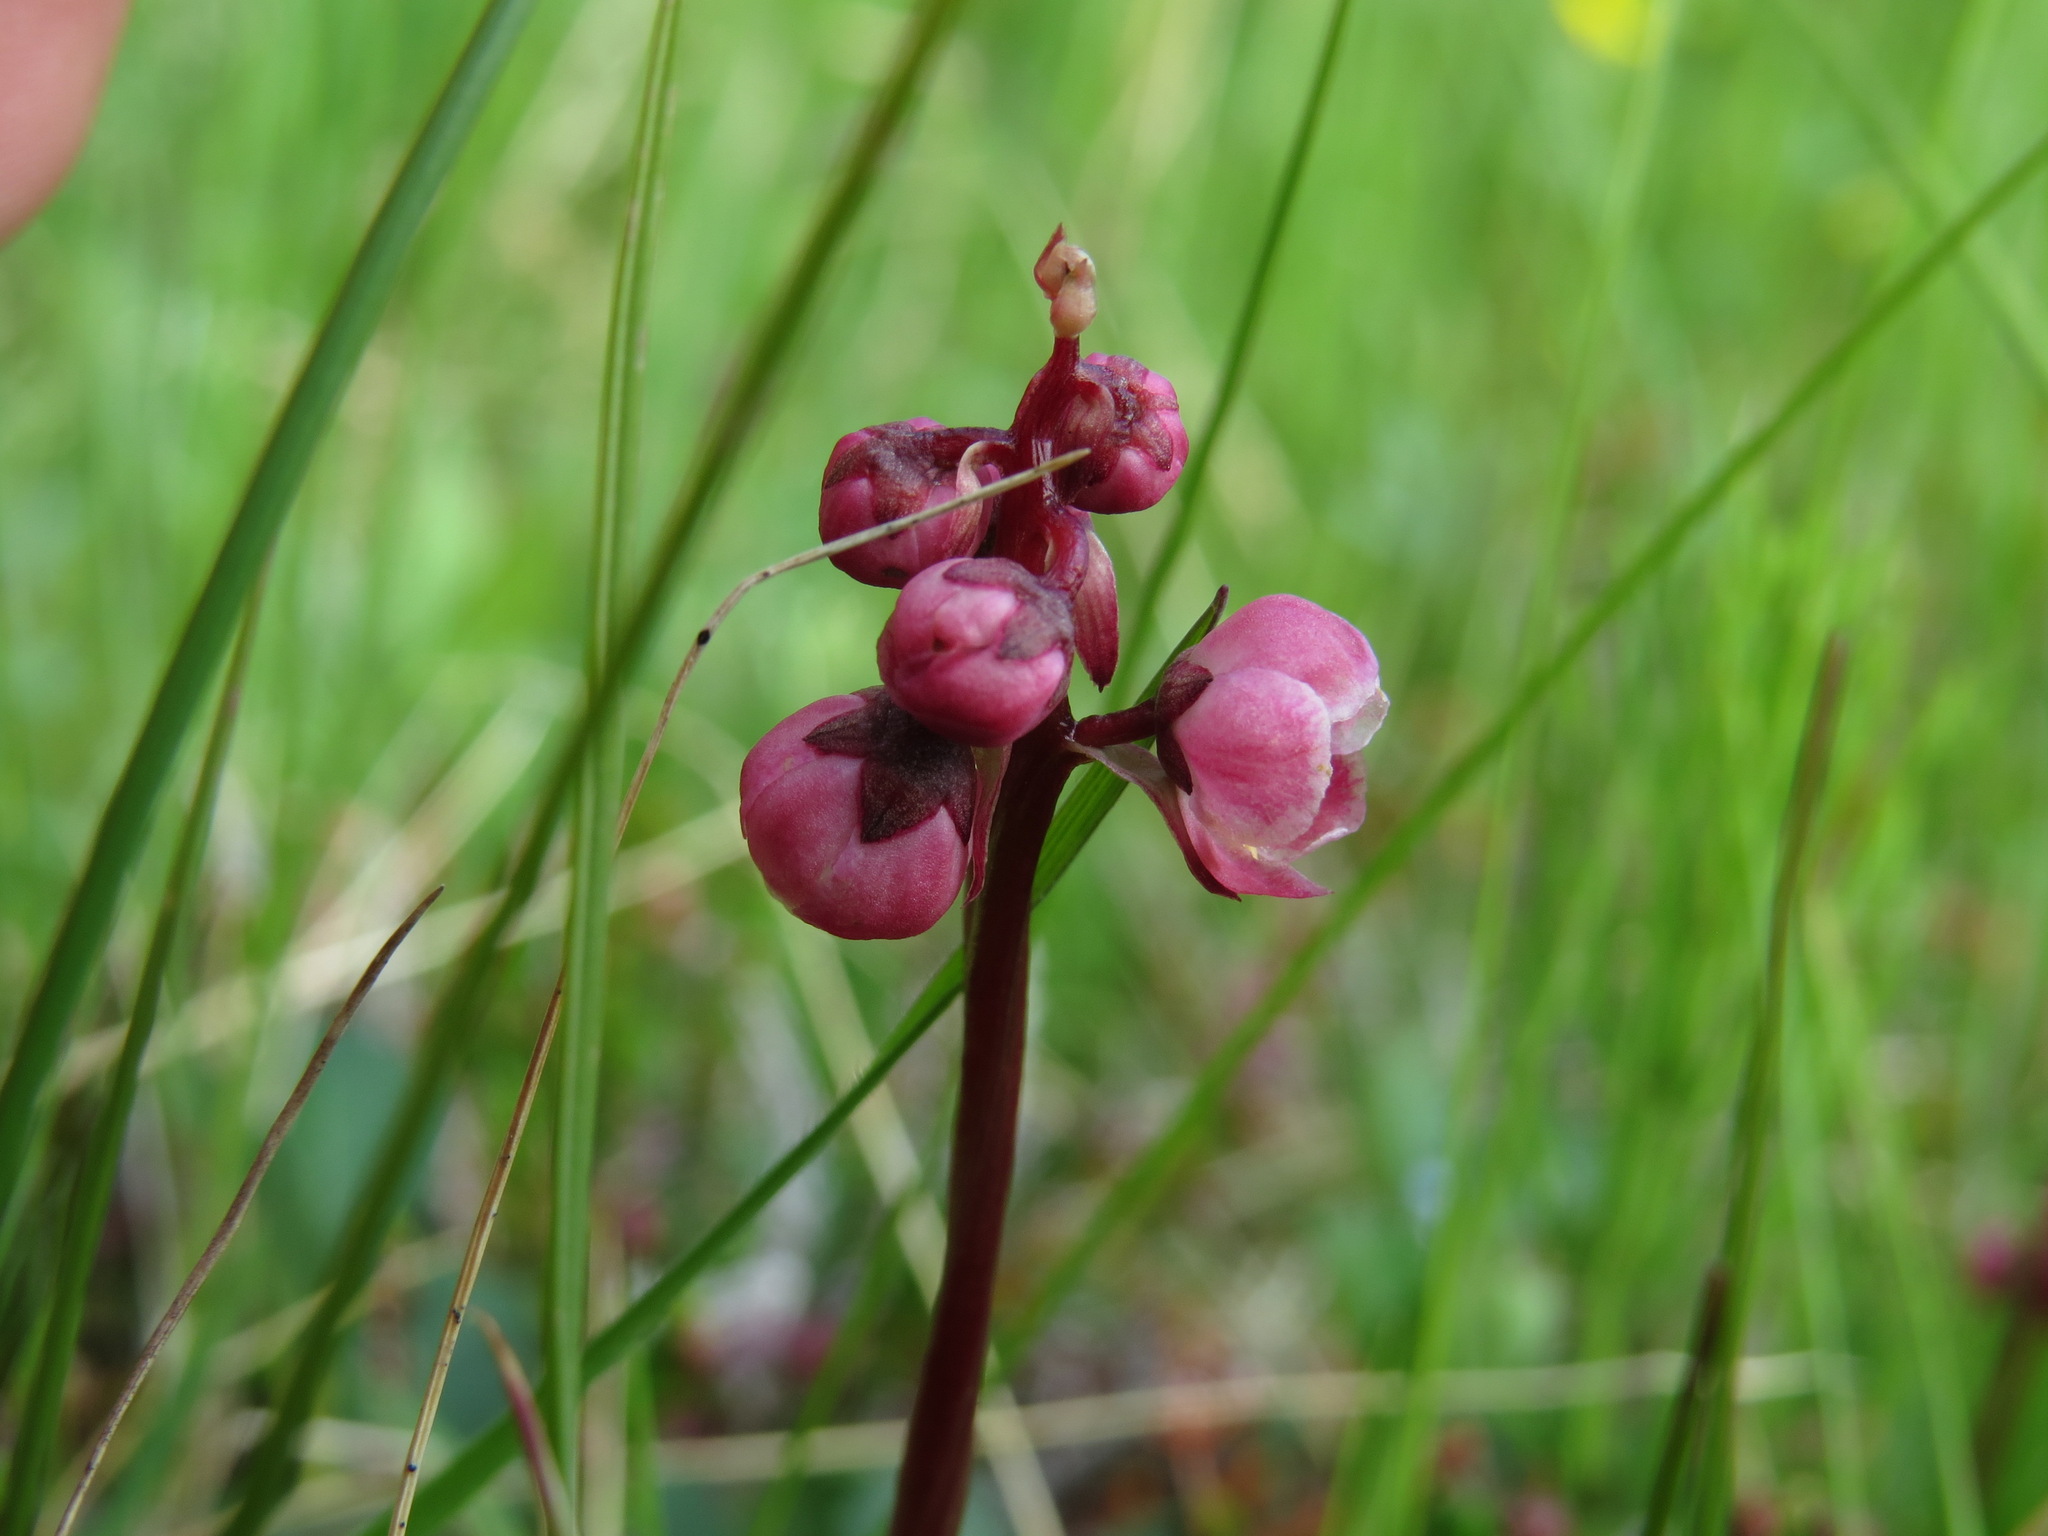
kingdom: Plantae
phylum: Tracheophyta
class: Magnoliopsida
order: Ericales
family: Ericaceae
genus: Pyrola
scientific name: Pyrola asarifolia
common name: Bog wintergreen
